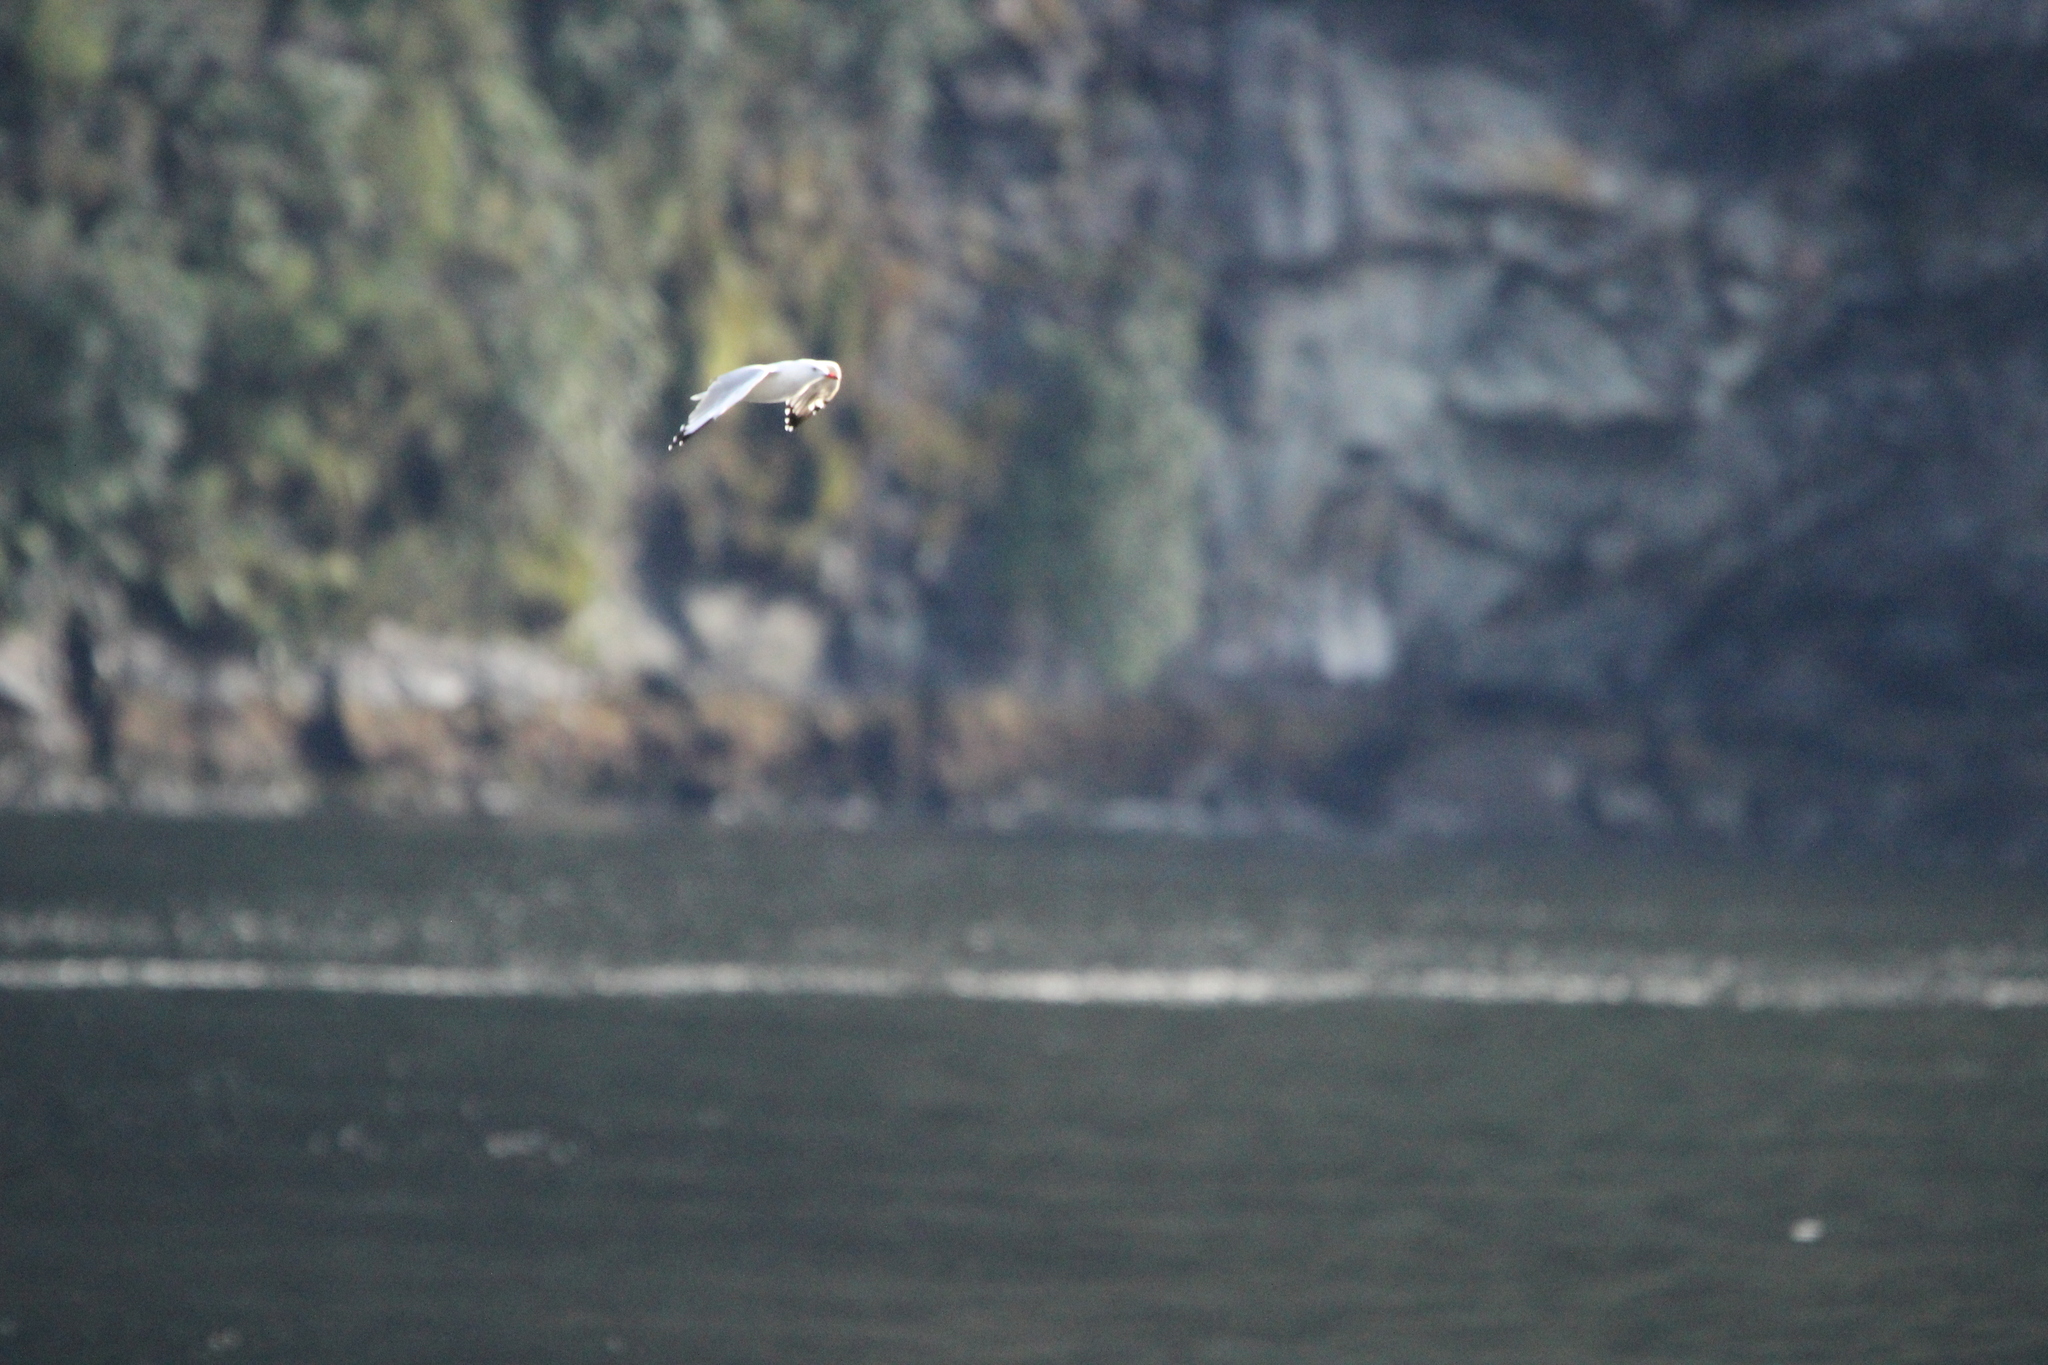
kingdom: Animalia
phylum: Chordata
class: Aves
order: Charadriiformes
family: Laridae
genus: Chroicocephalus
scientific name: Chroicocephalus novaehollandiae
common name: Silver gull
